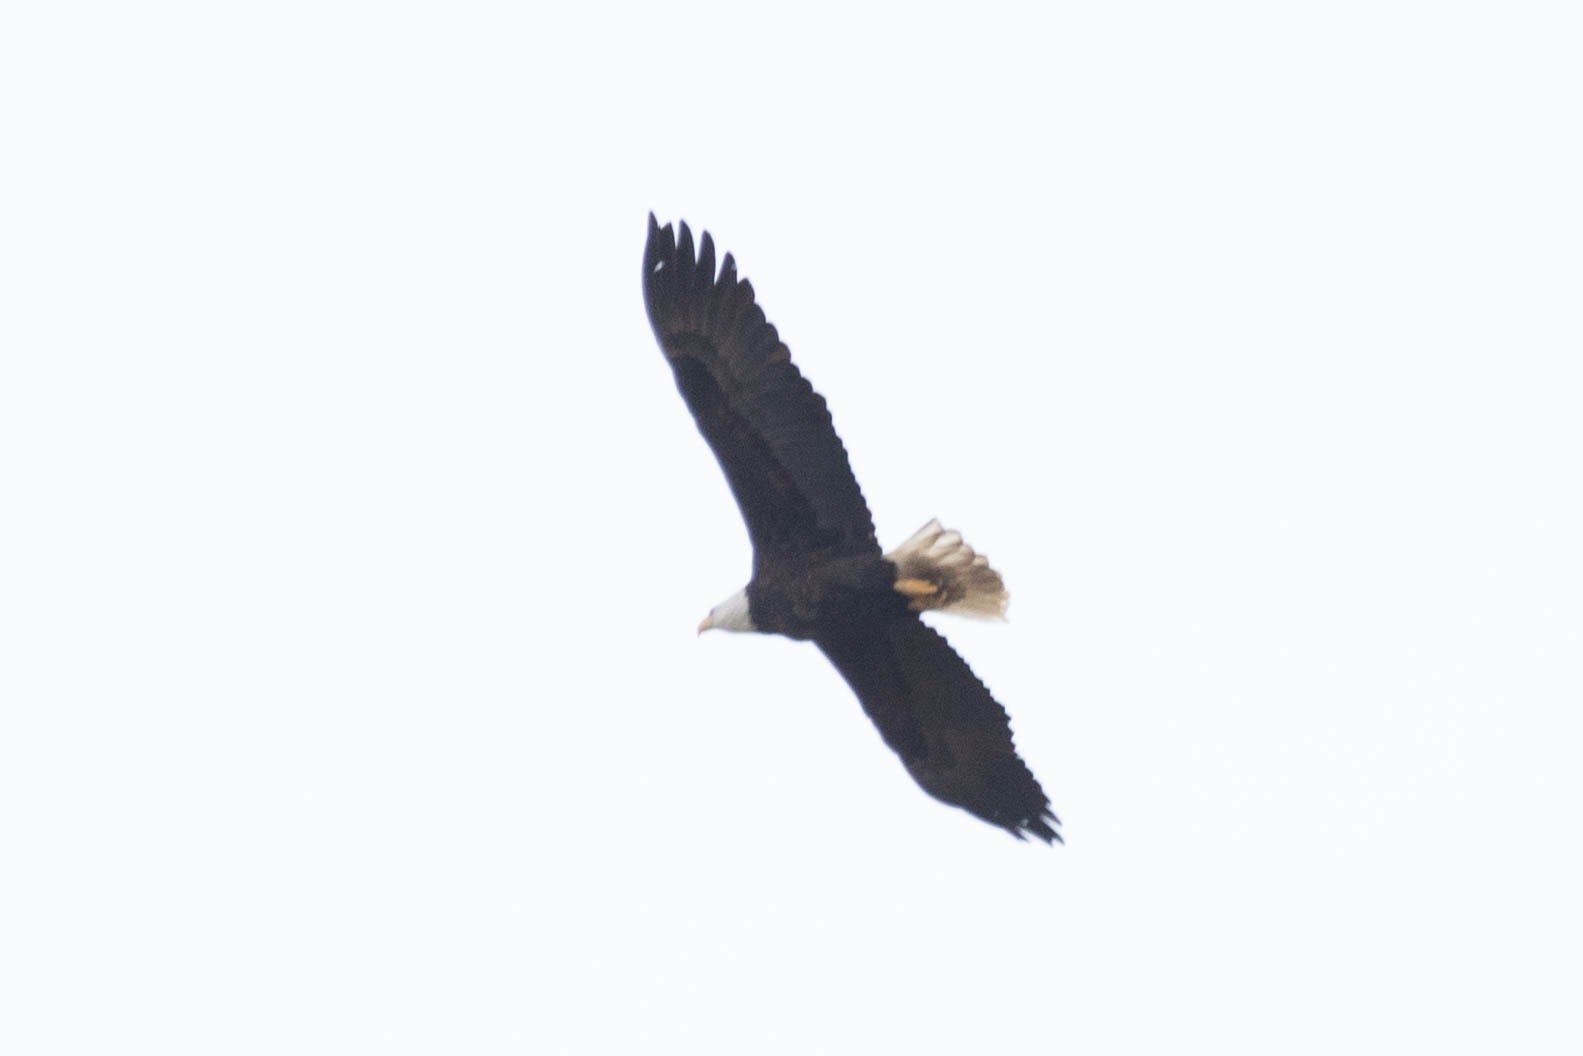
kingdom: Animalia
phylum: Chordata
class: Aves
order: Accipitriformes
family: Accipitridae
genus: Haliaeetus
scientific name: Haliaeetus leucocephalus
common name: Bald eagle
